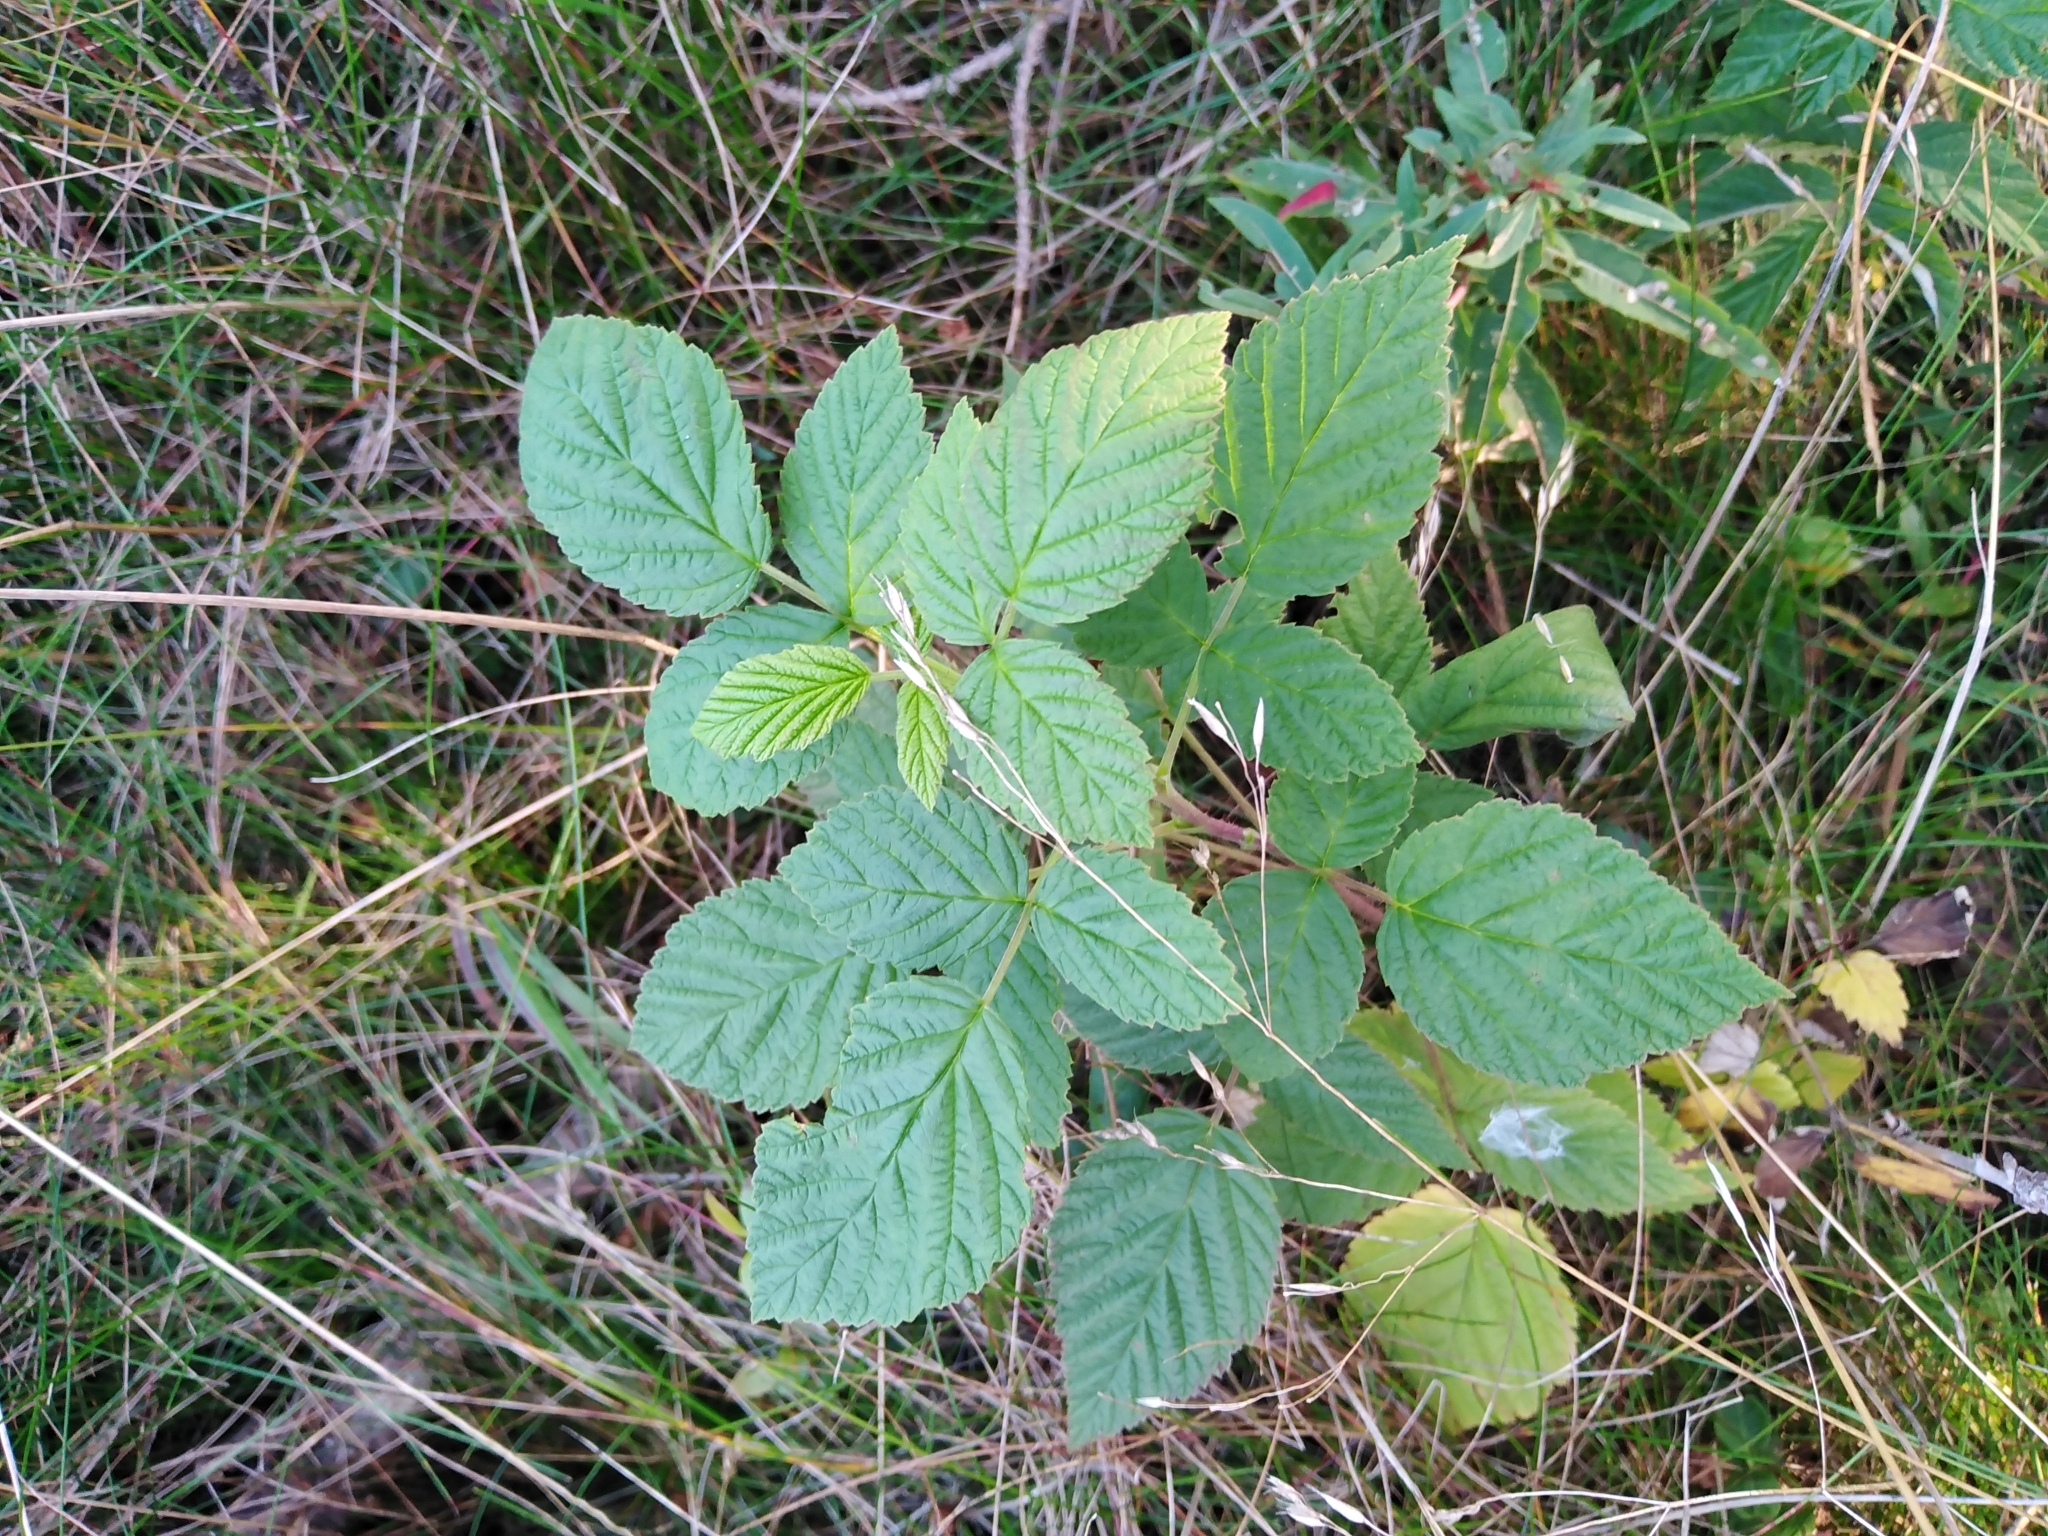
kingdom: Plantae
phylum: Tracheophyta
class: Magnoliopsida
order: Rosales
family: Rosaceae
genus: Rubus
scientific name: Rubus idaeus
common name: Raspberry
